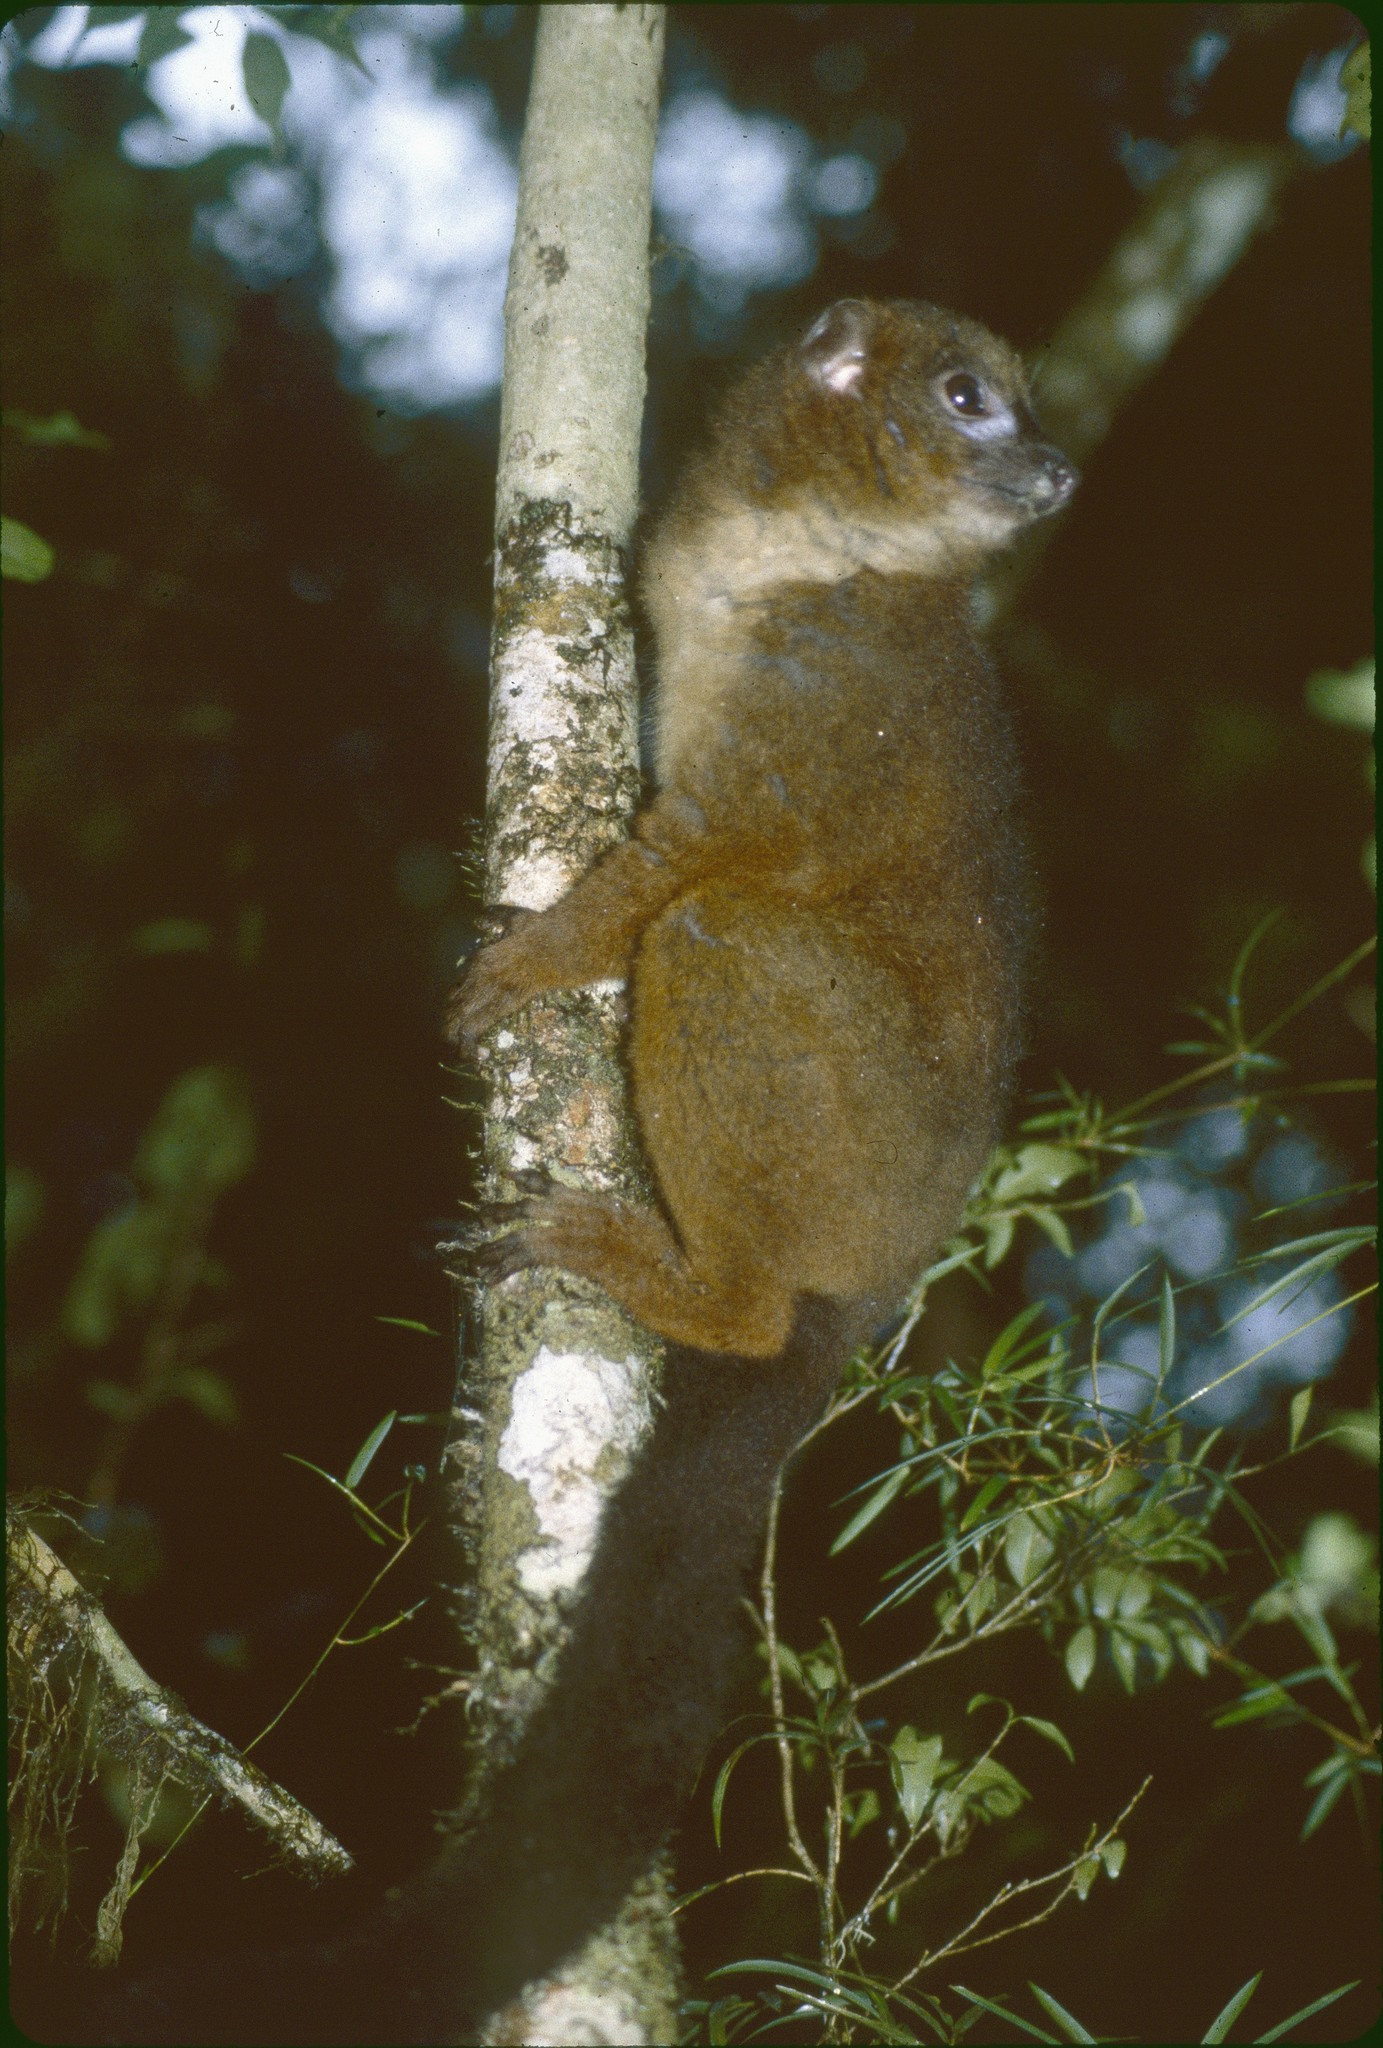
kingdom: Animalia
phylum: Chordata
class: Mammalia
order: Primates
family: Lemuridae
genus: Eulemur
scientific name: Eulemur rubriventer
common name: Red-bellied lemur
